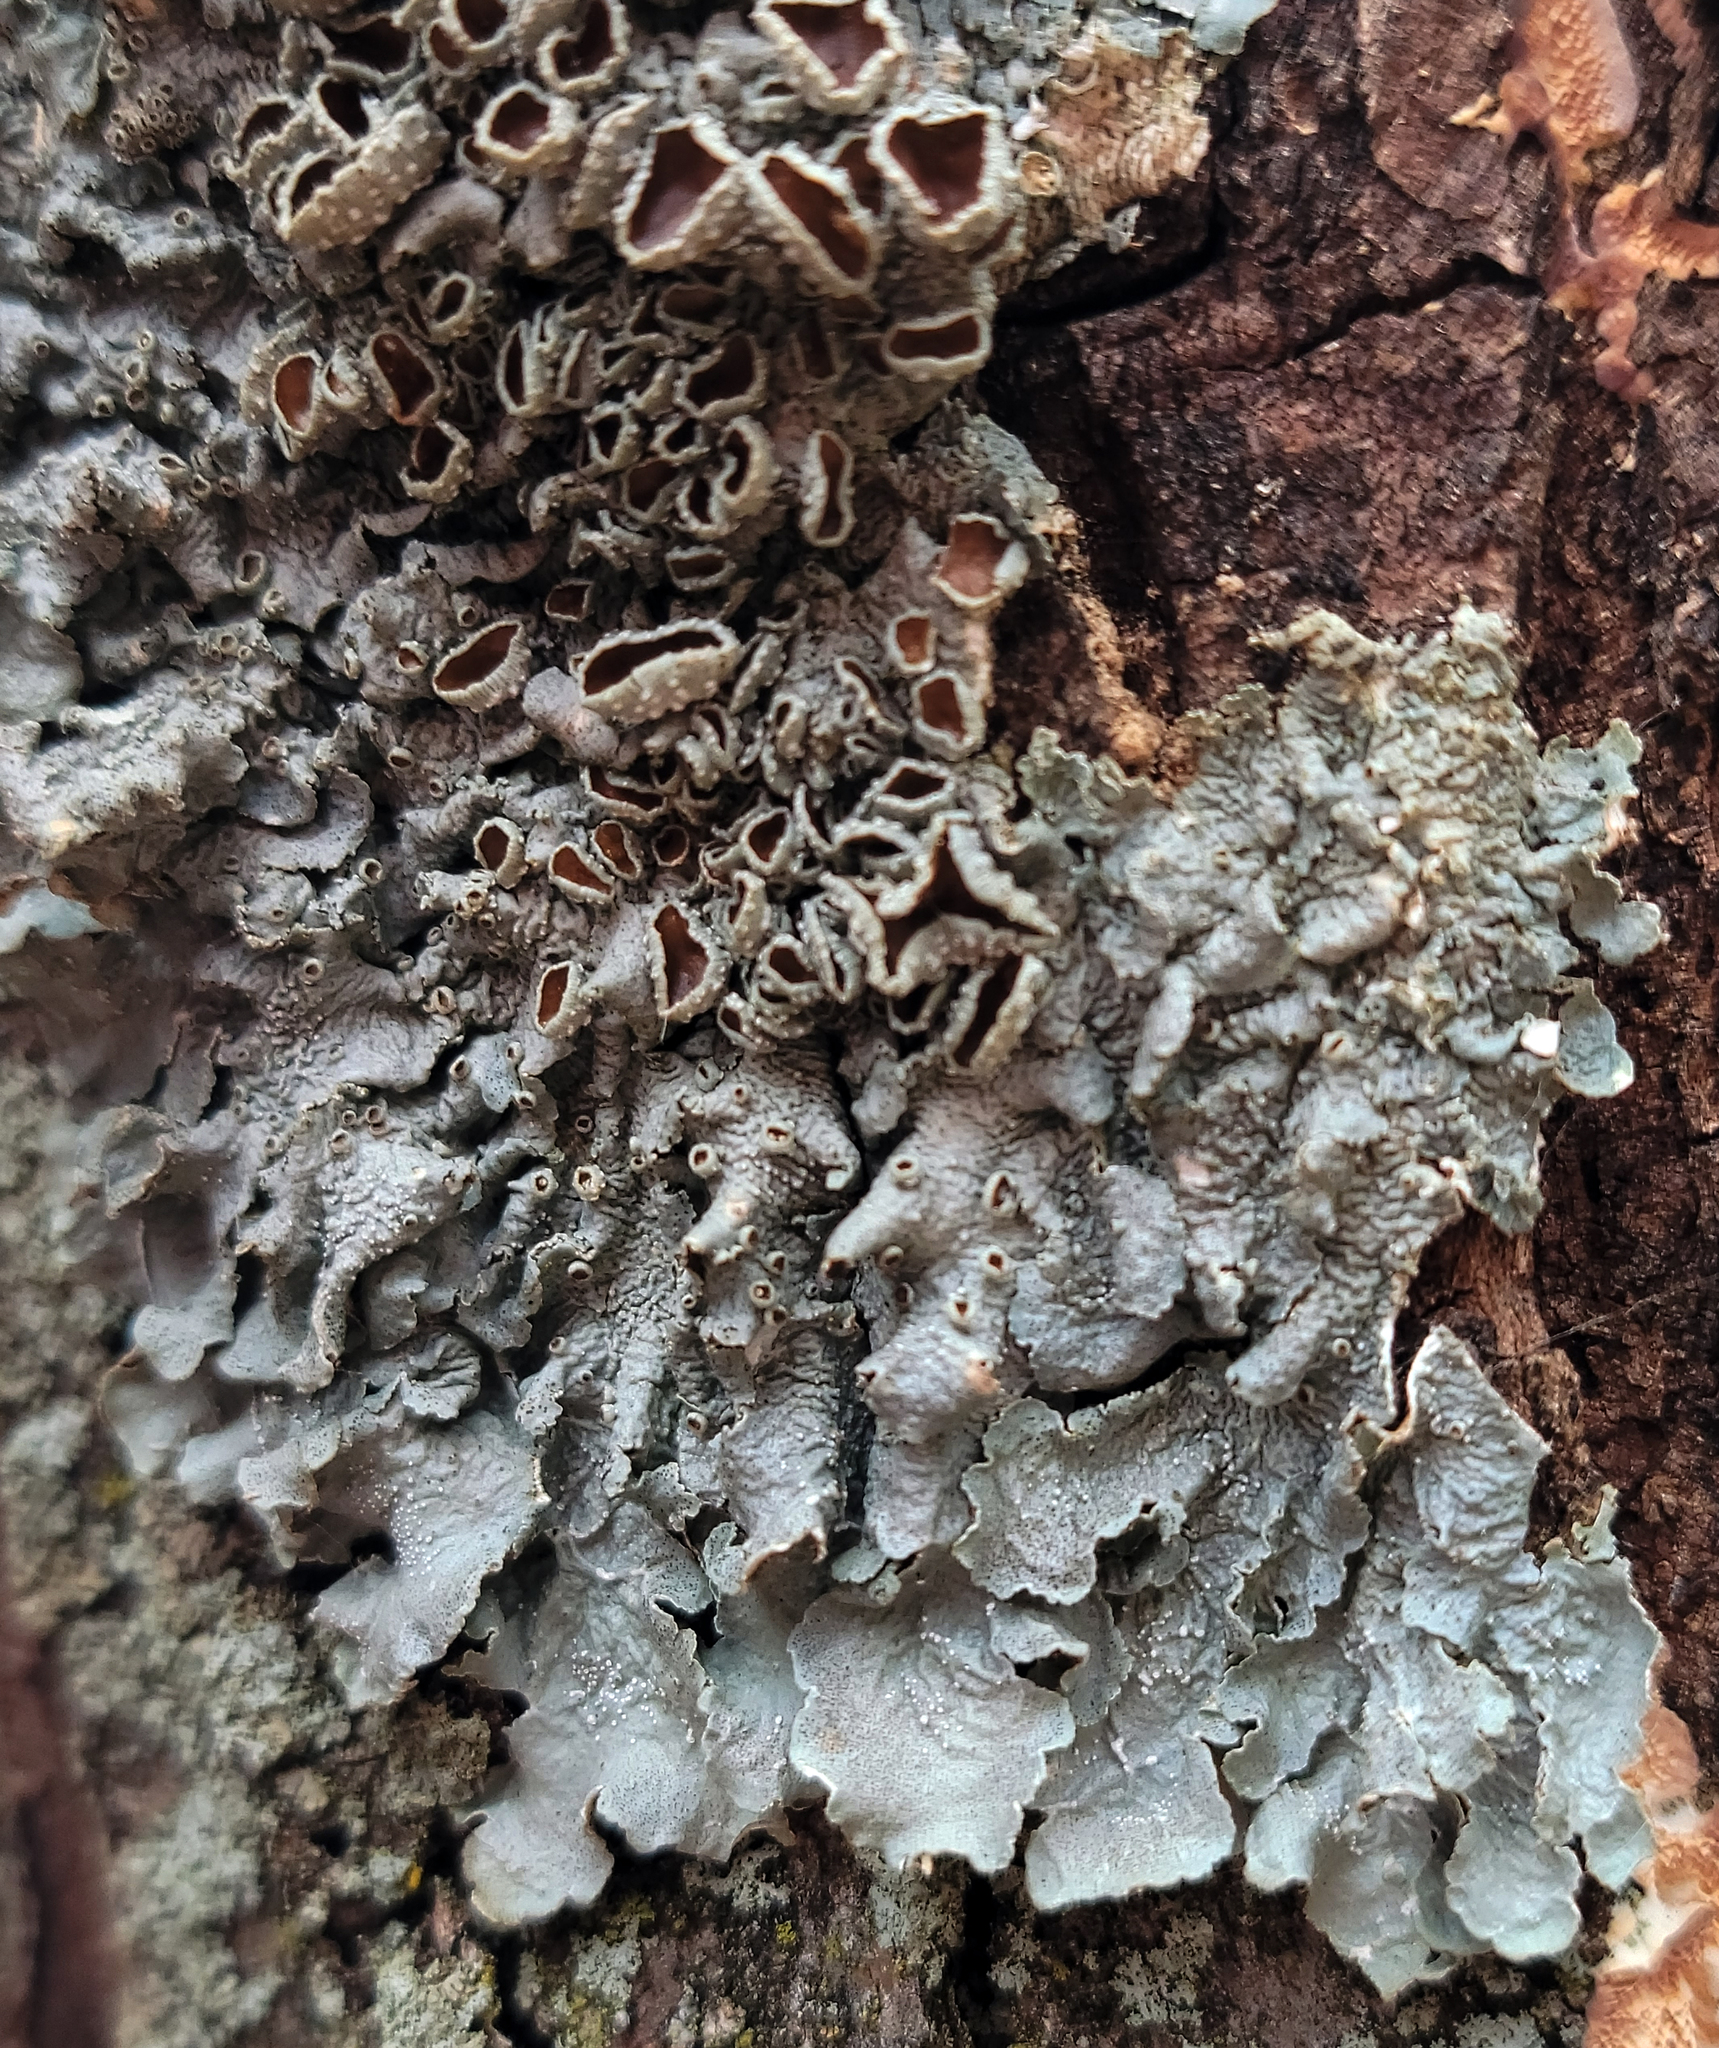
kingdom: Fungi
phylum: Ascomycota
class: Lecanoromycetes
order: Lecanorales
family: Parmeliaceae
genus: Punctelia
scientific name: Punctelia bolliana
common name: Eastern speckled shield lichen
